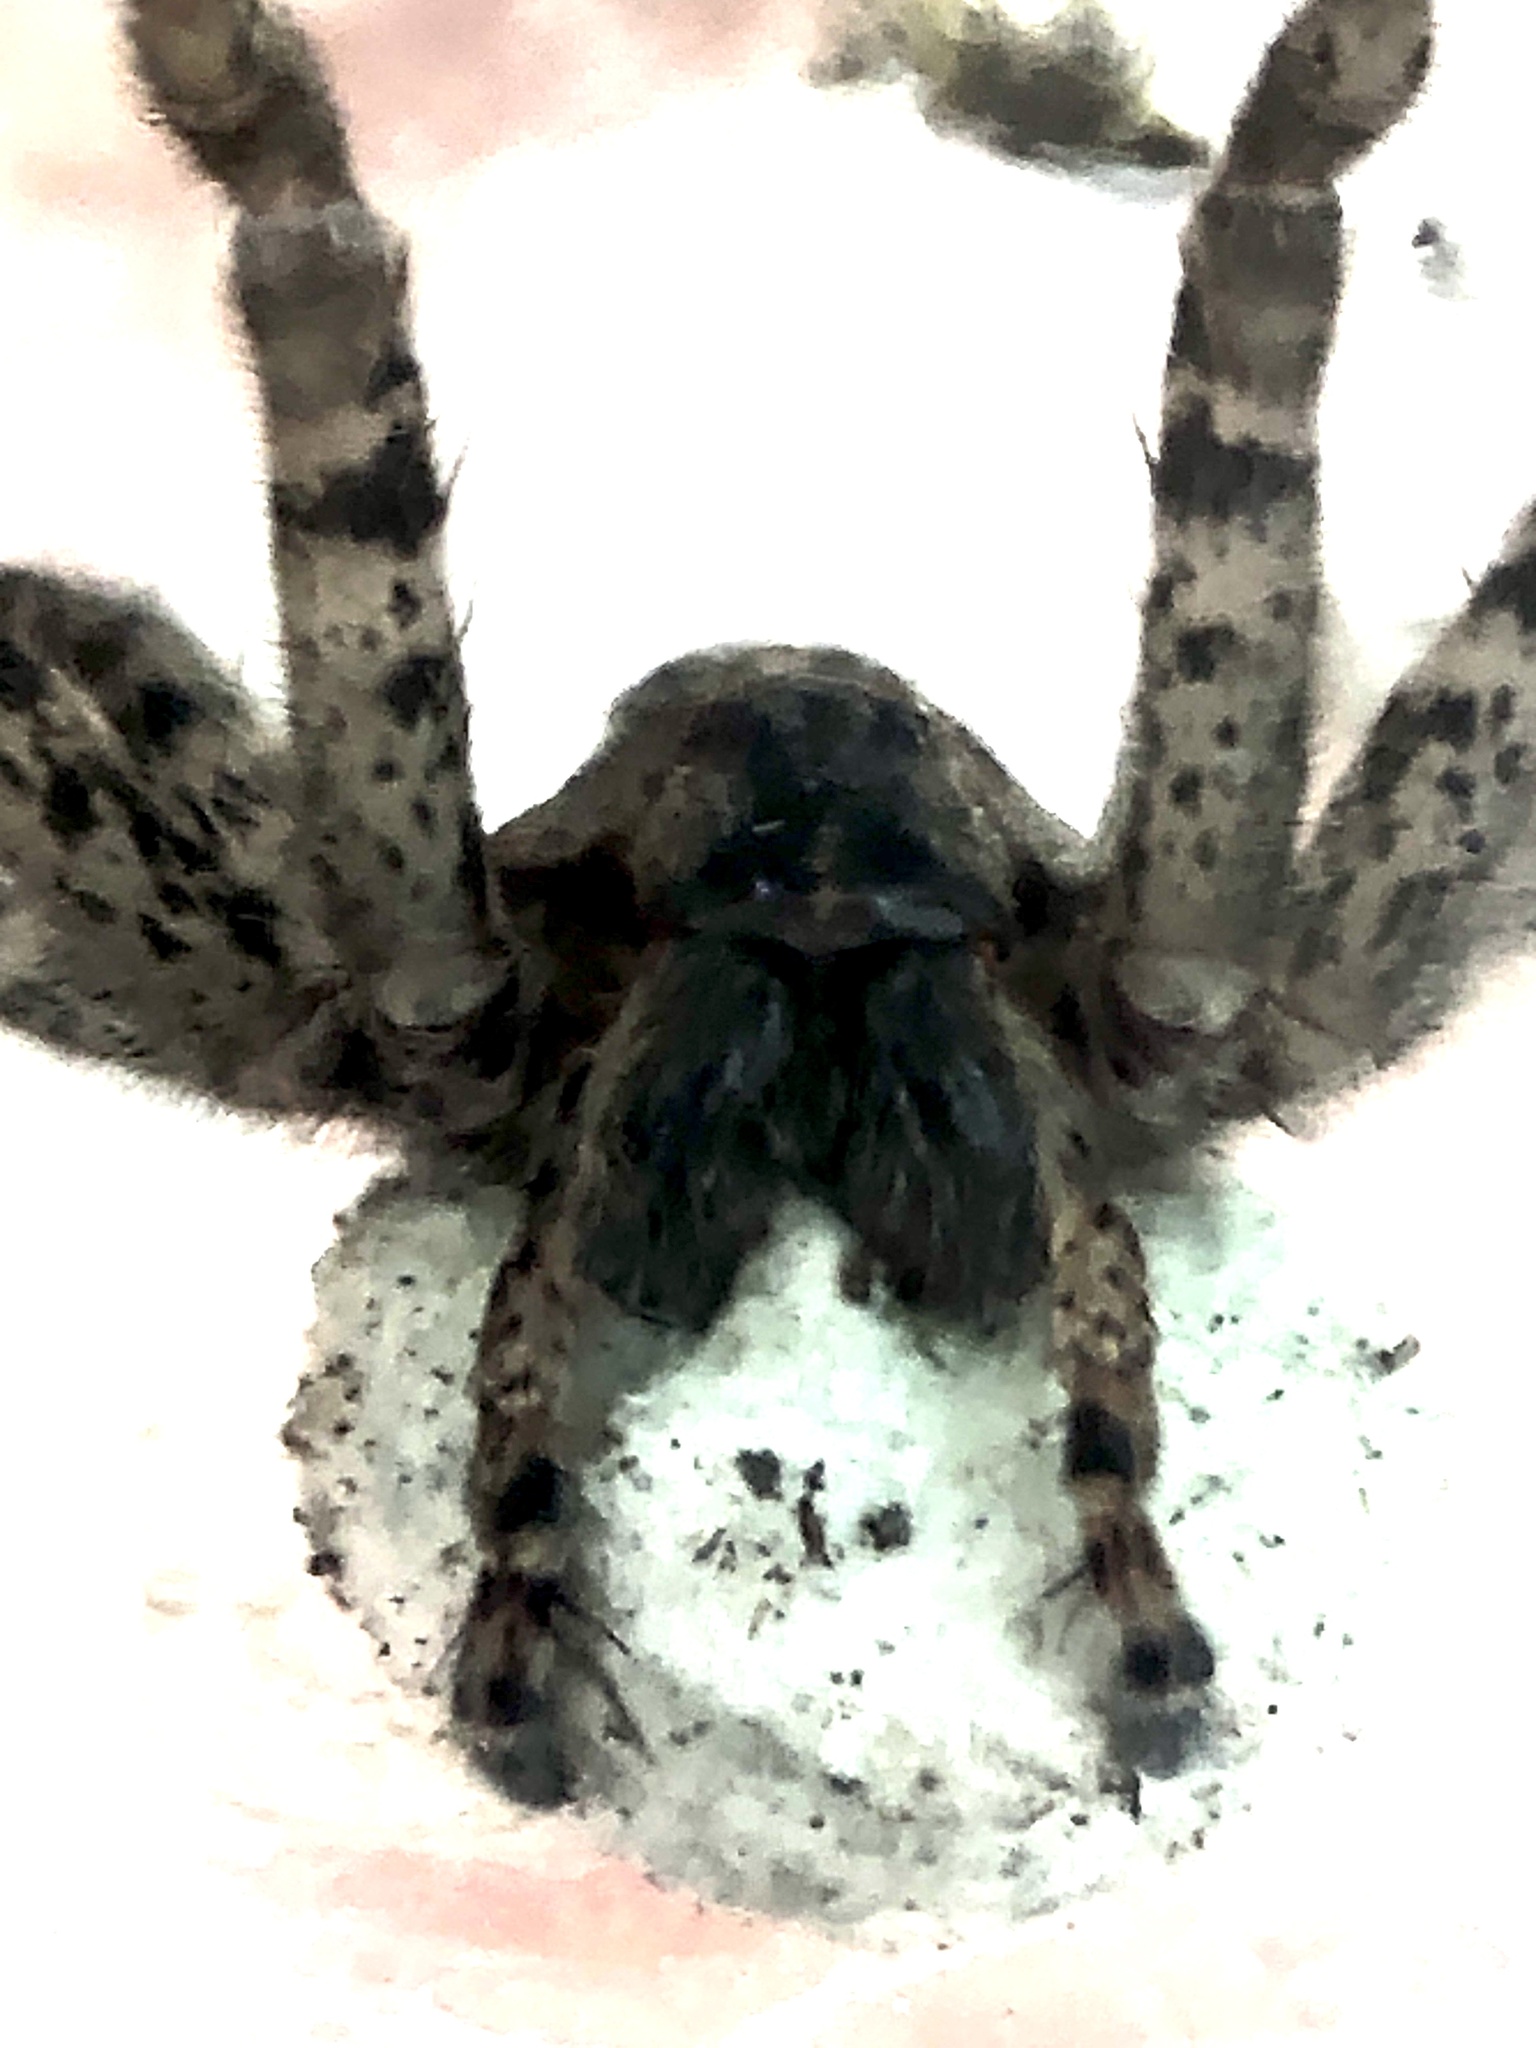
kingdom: Animalia
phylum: Arthropoda
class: Arachnida
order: Araneae
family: Pisauridae
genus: Dolomedes
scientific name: Dolomedes tenebrosus
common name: Dark fishing spider
